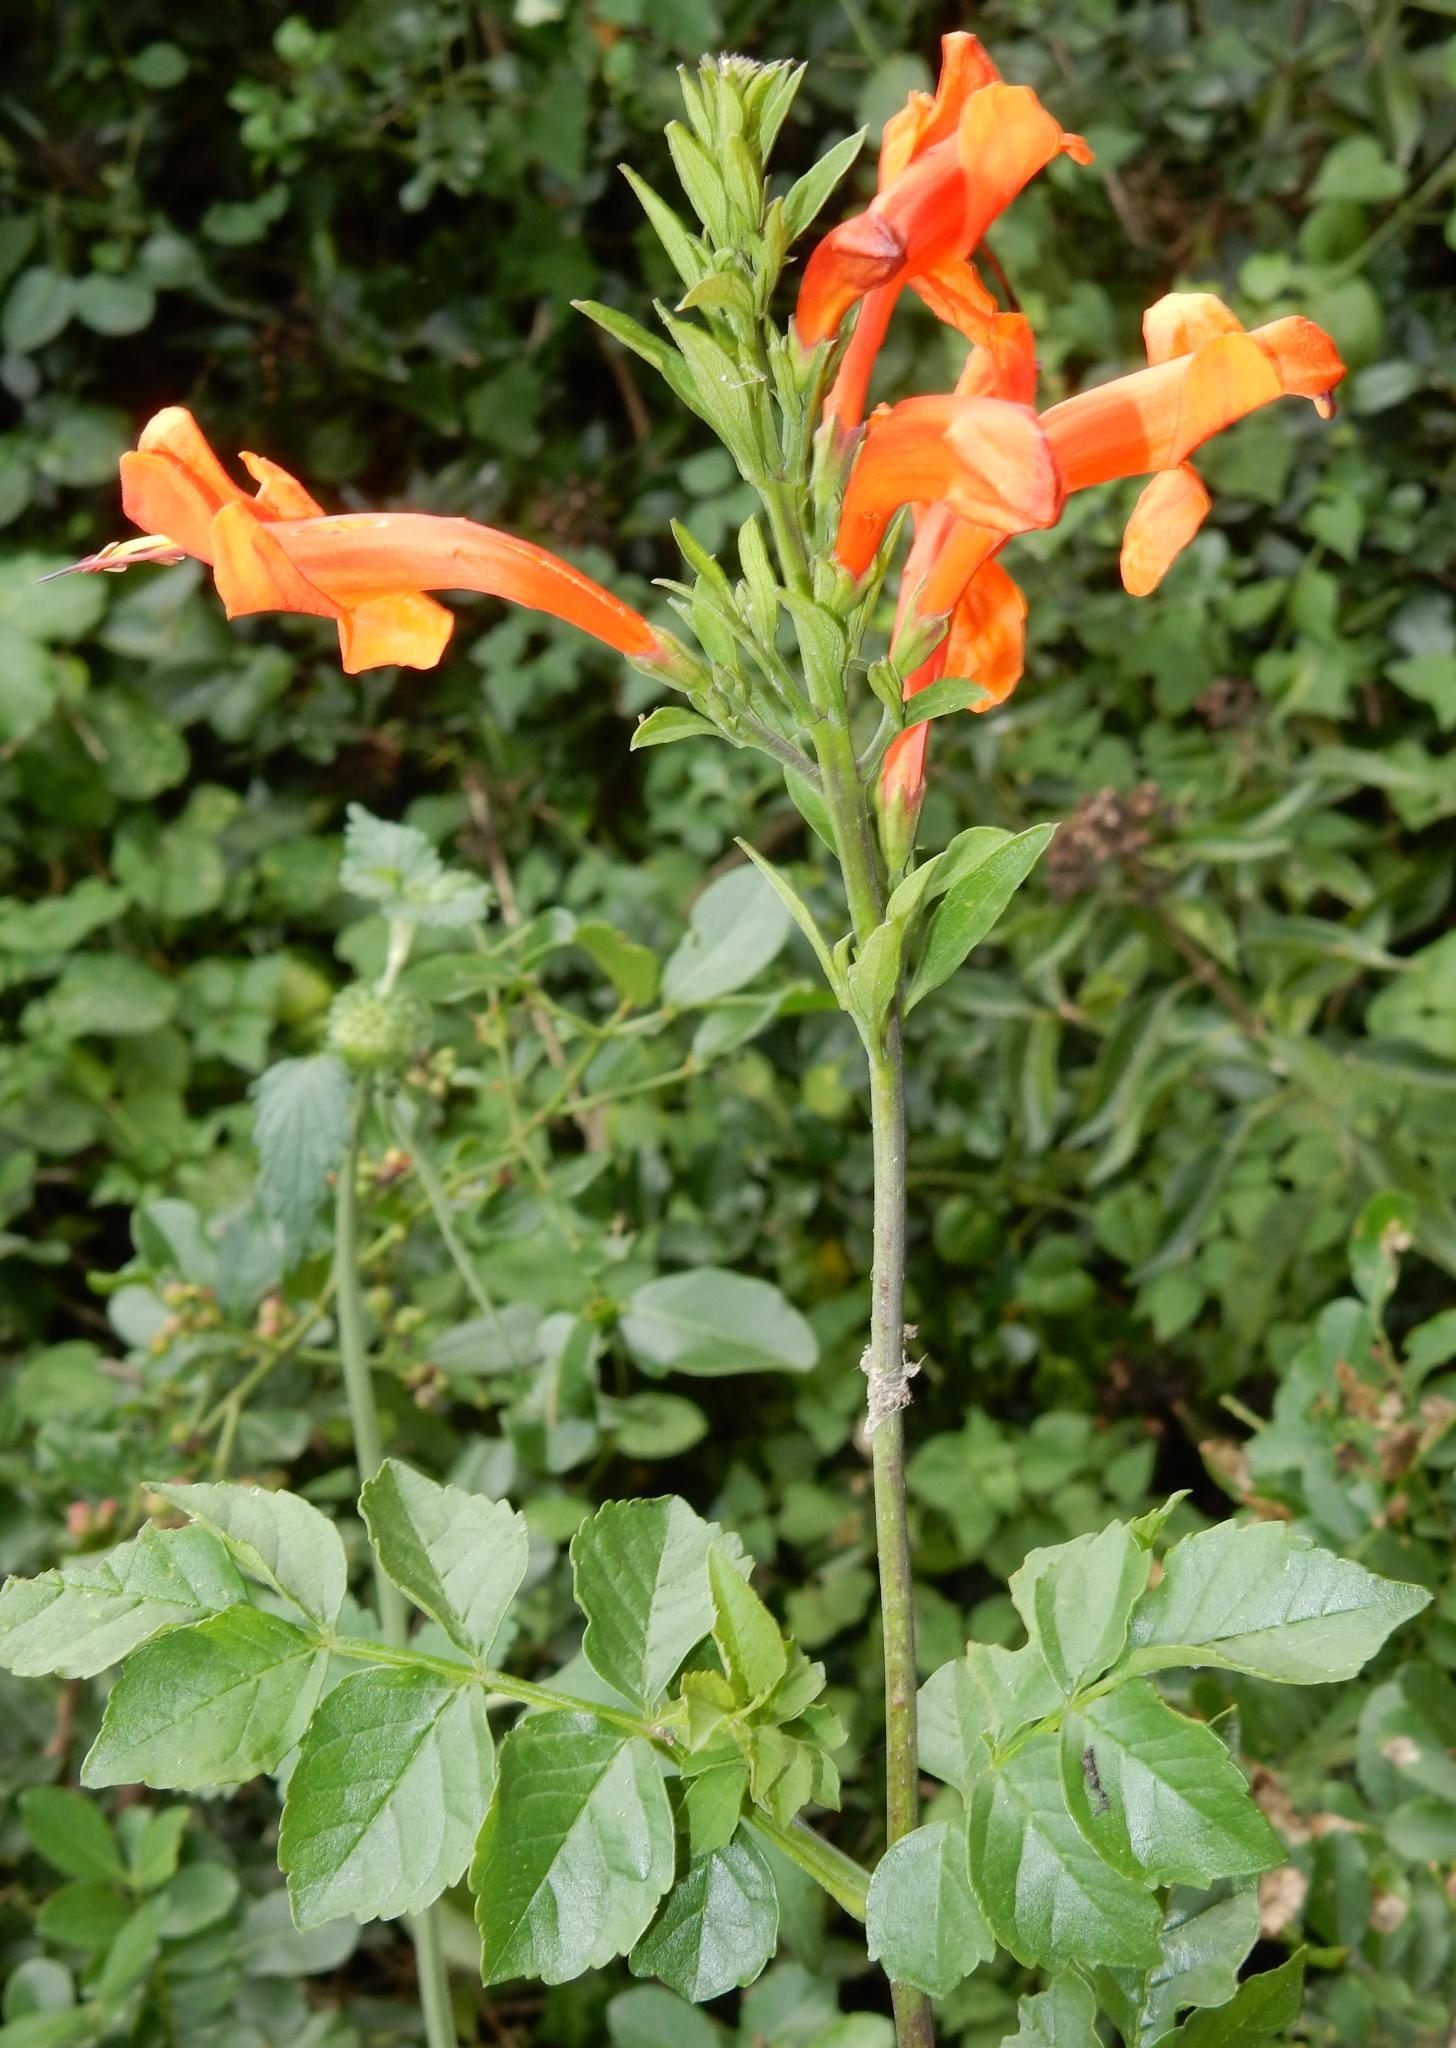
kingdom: Plantae
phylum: Tracheophyta
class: Magnoliopsida
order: Lamiales
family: Bignoniaceae
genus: Tecomaria
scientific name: Tecomaria capensis
